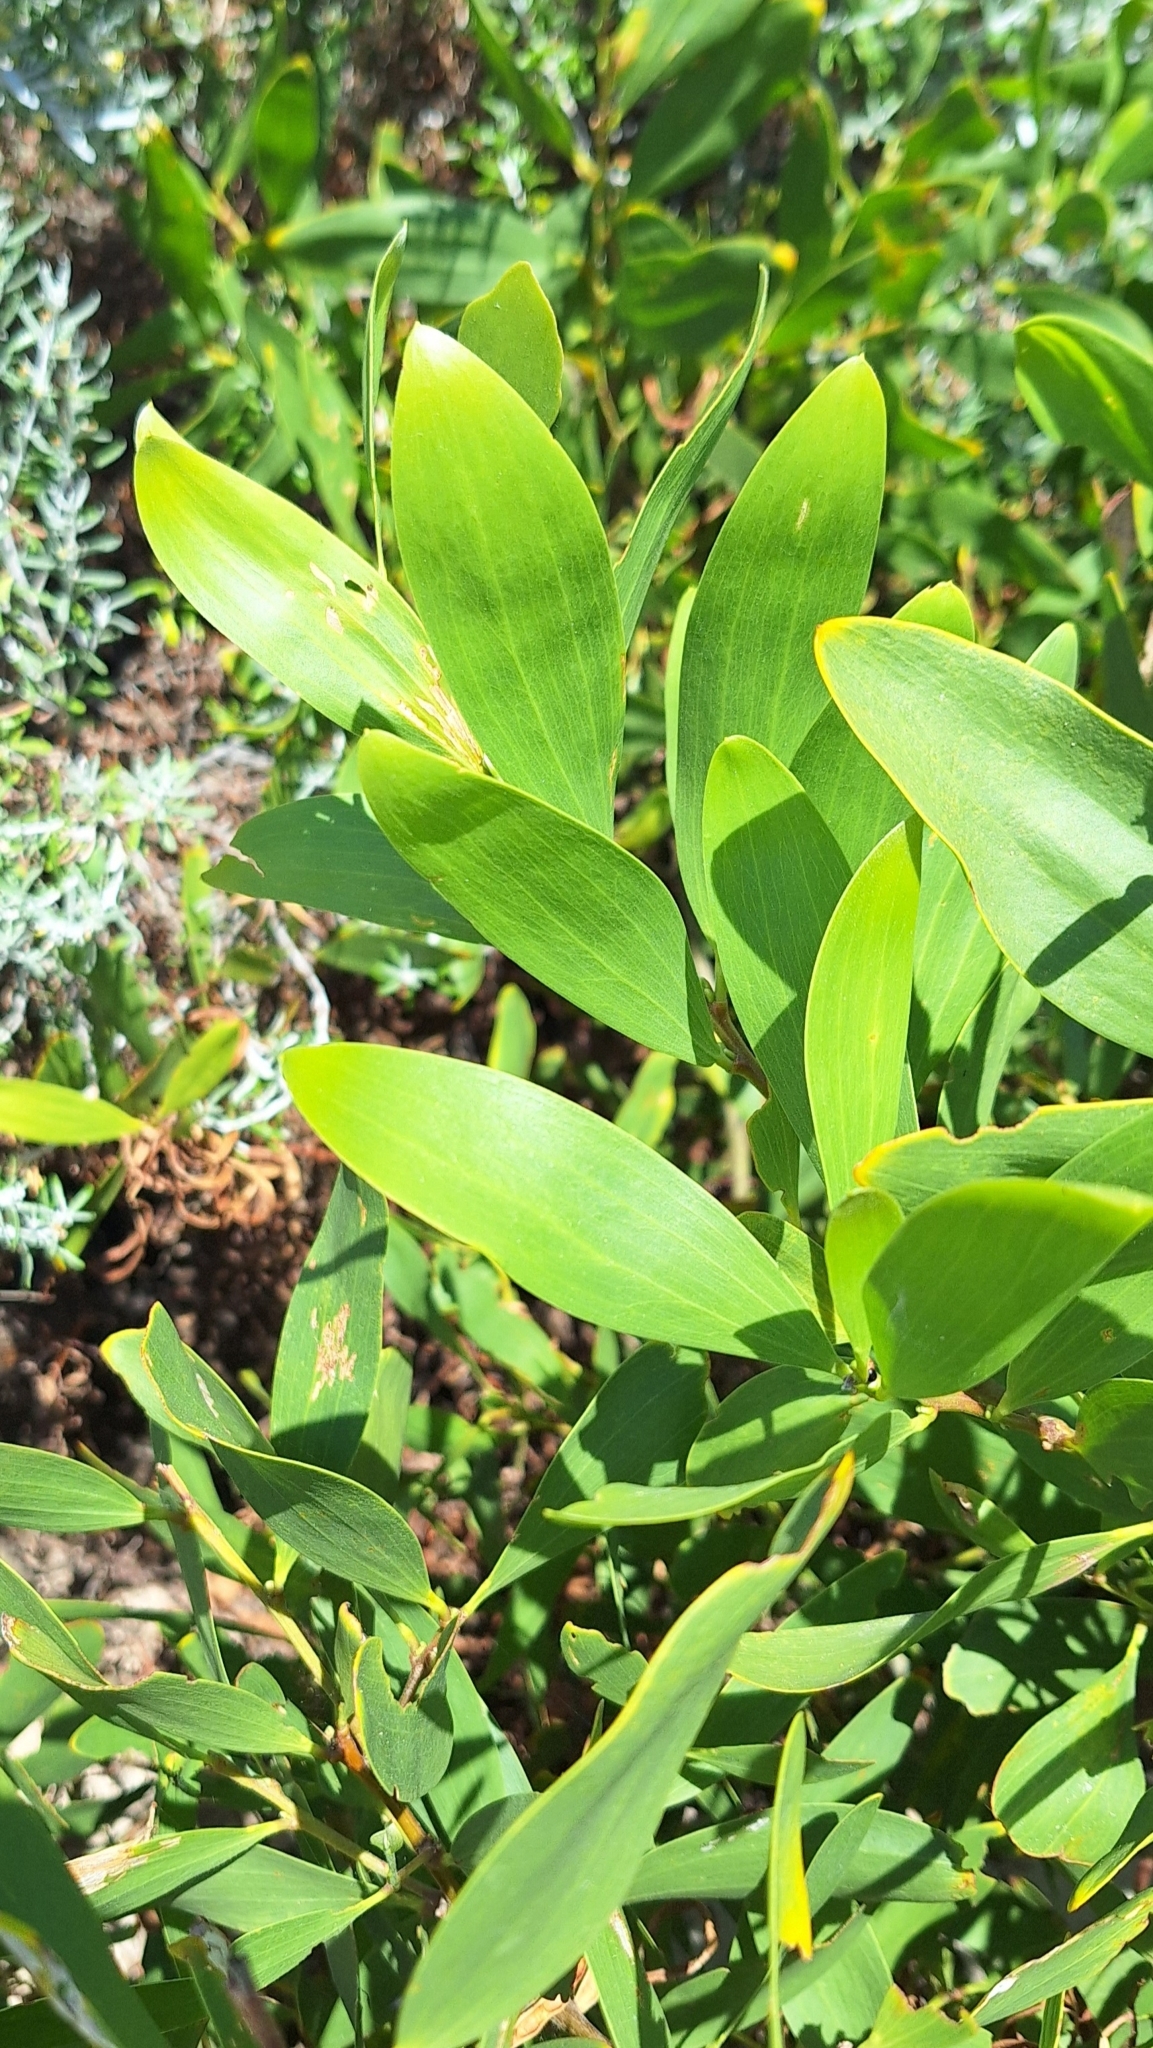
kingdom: Plantae
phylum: Tracheophyta
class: Magnoliopsida
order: Fabales
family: Fabaceae
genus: Acacia
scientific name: Acacia longifolia
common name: Sydney golden wattle
